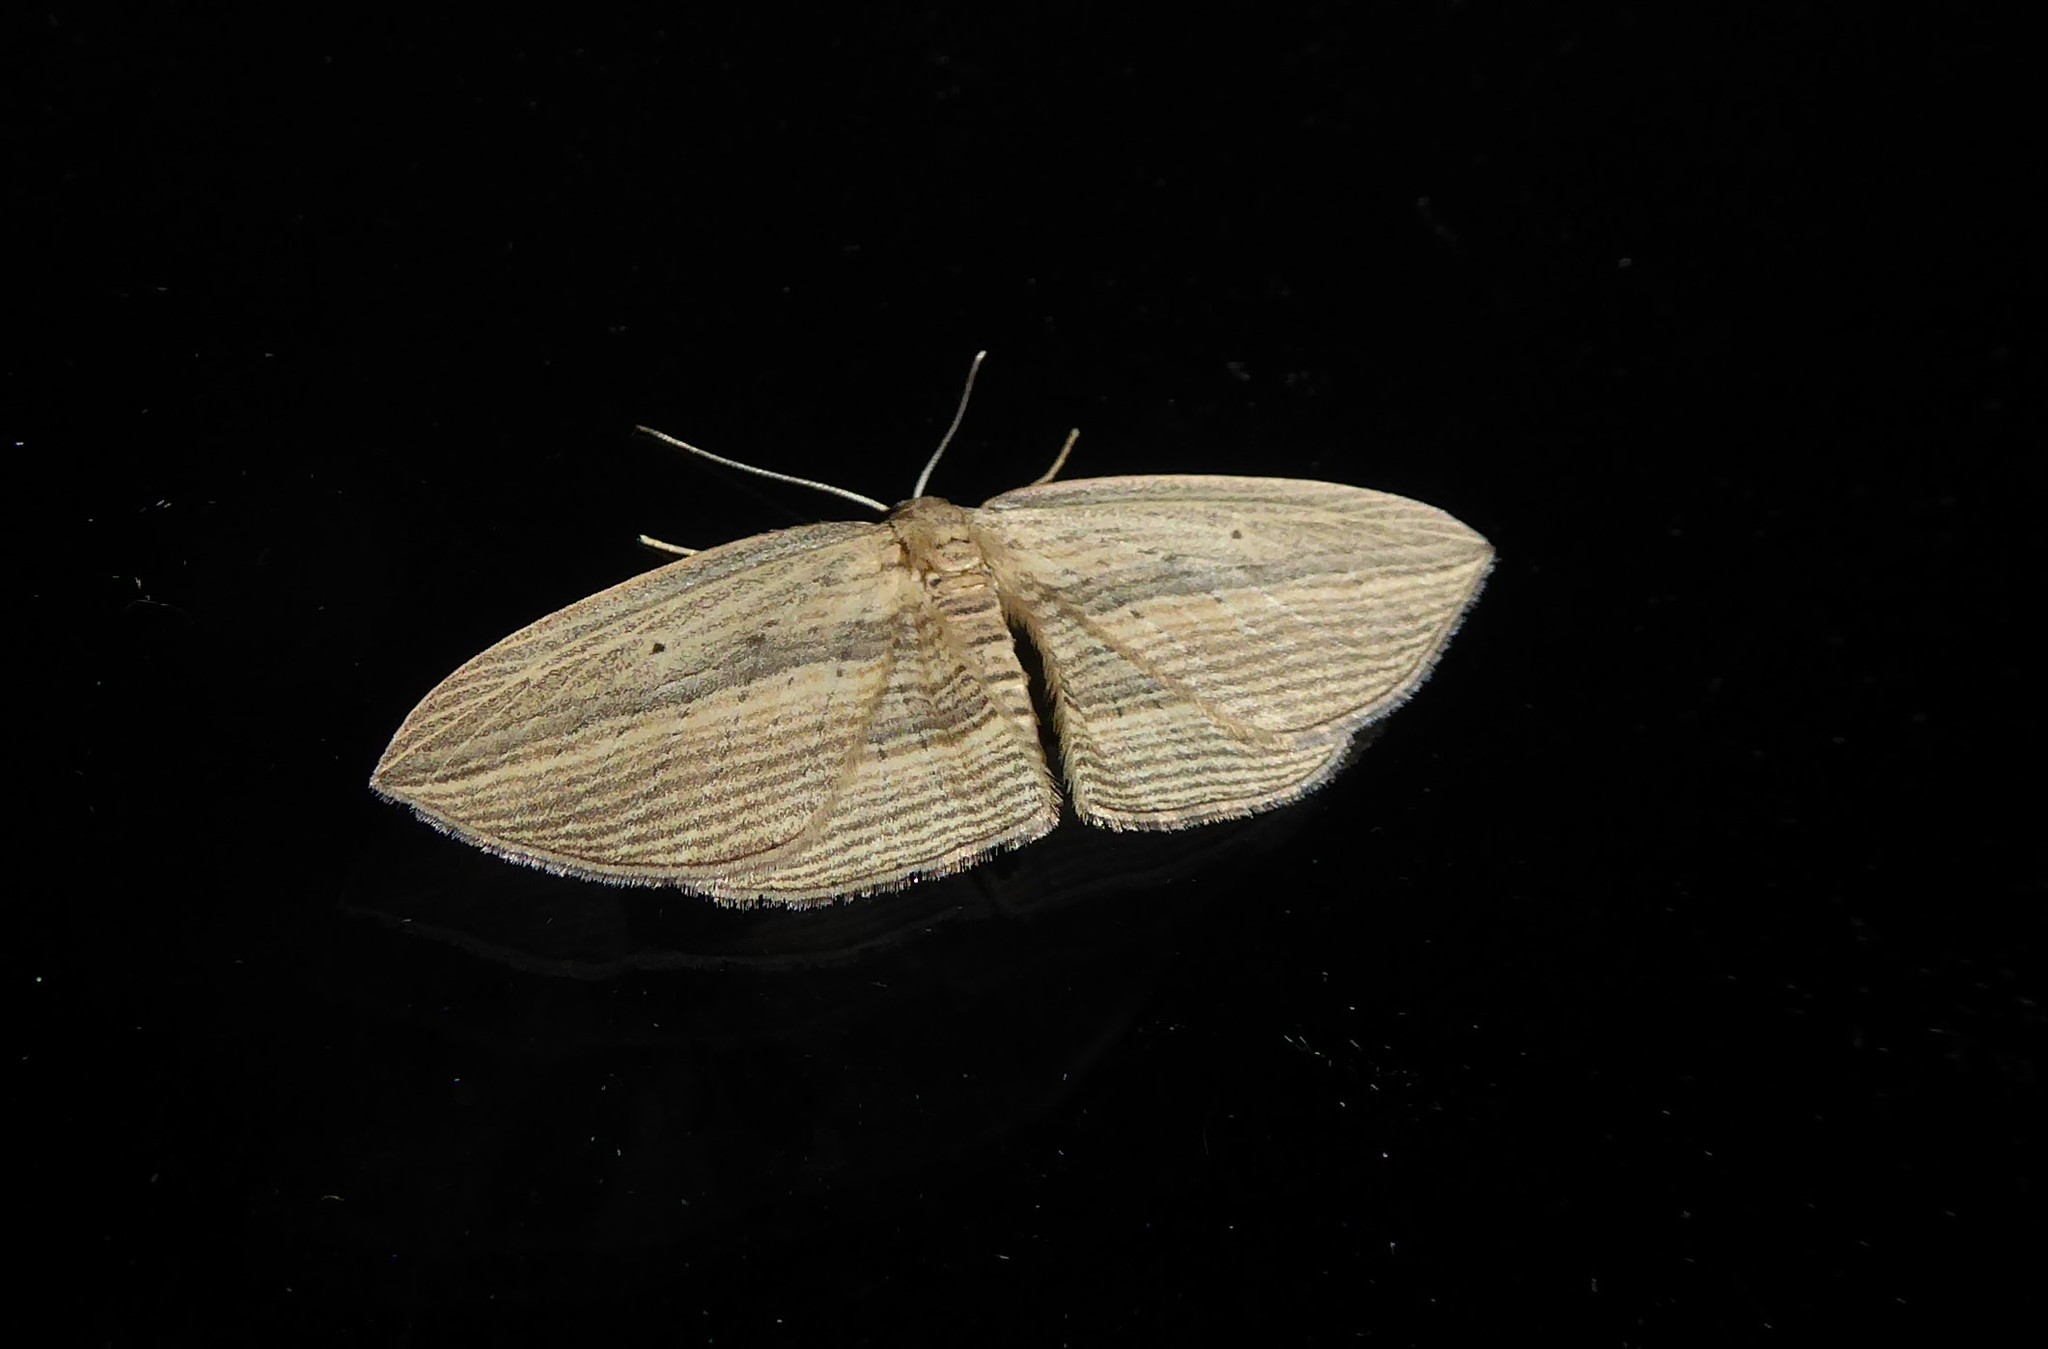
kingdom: Animalia
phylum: Arthropoda
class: Insecta
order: Lepidoptera
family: Geometridae
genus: Epiphryne
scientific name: Epiphryne verriculata
